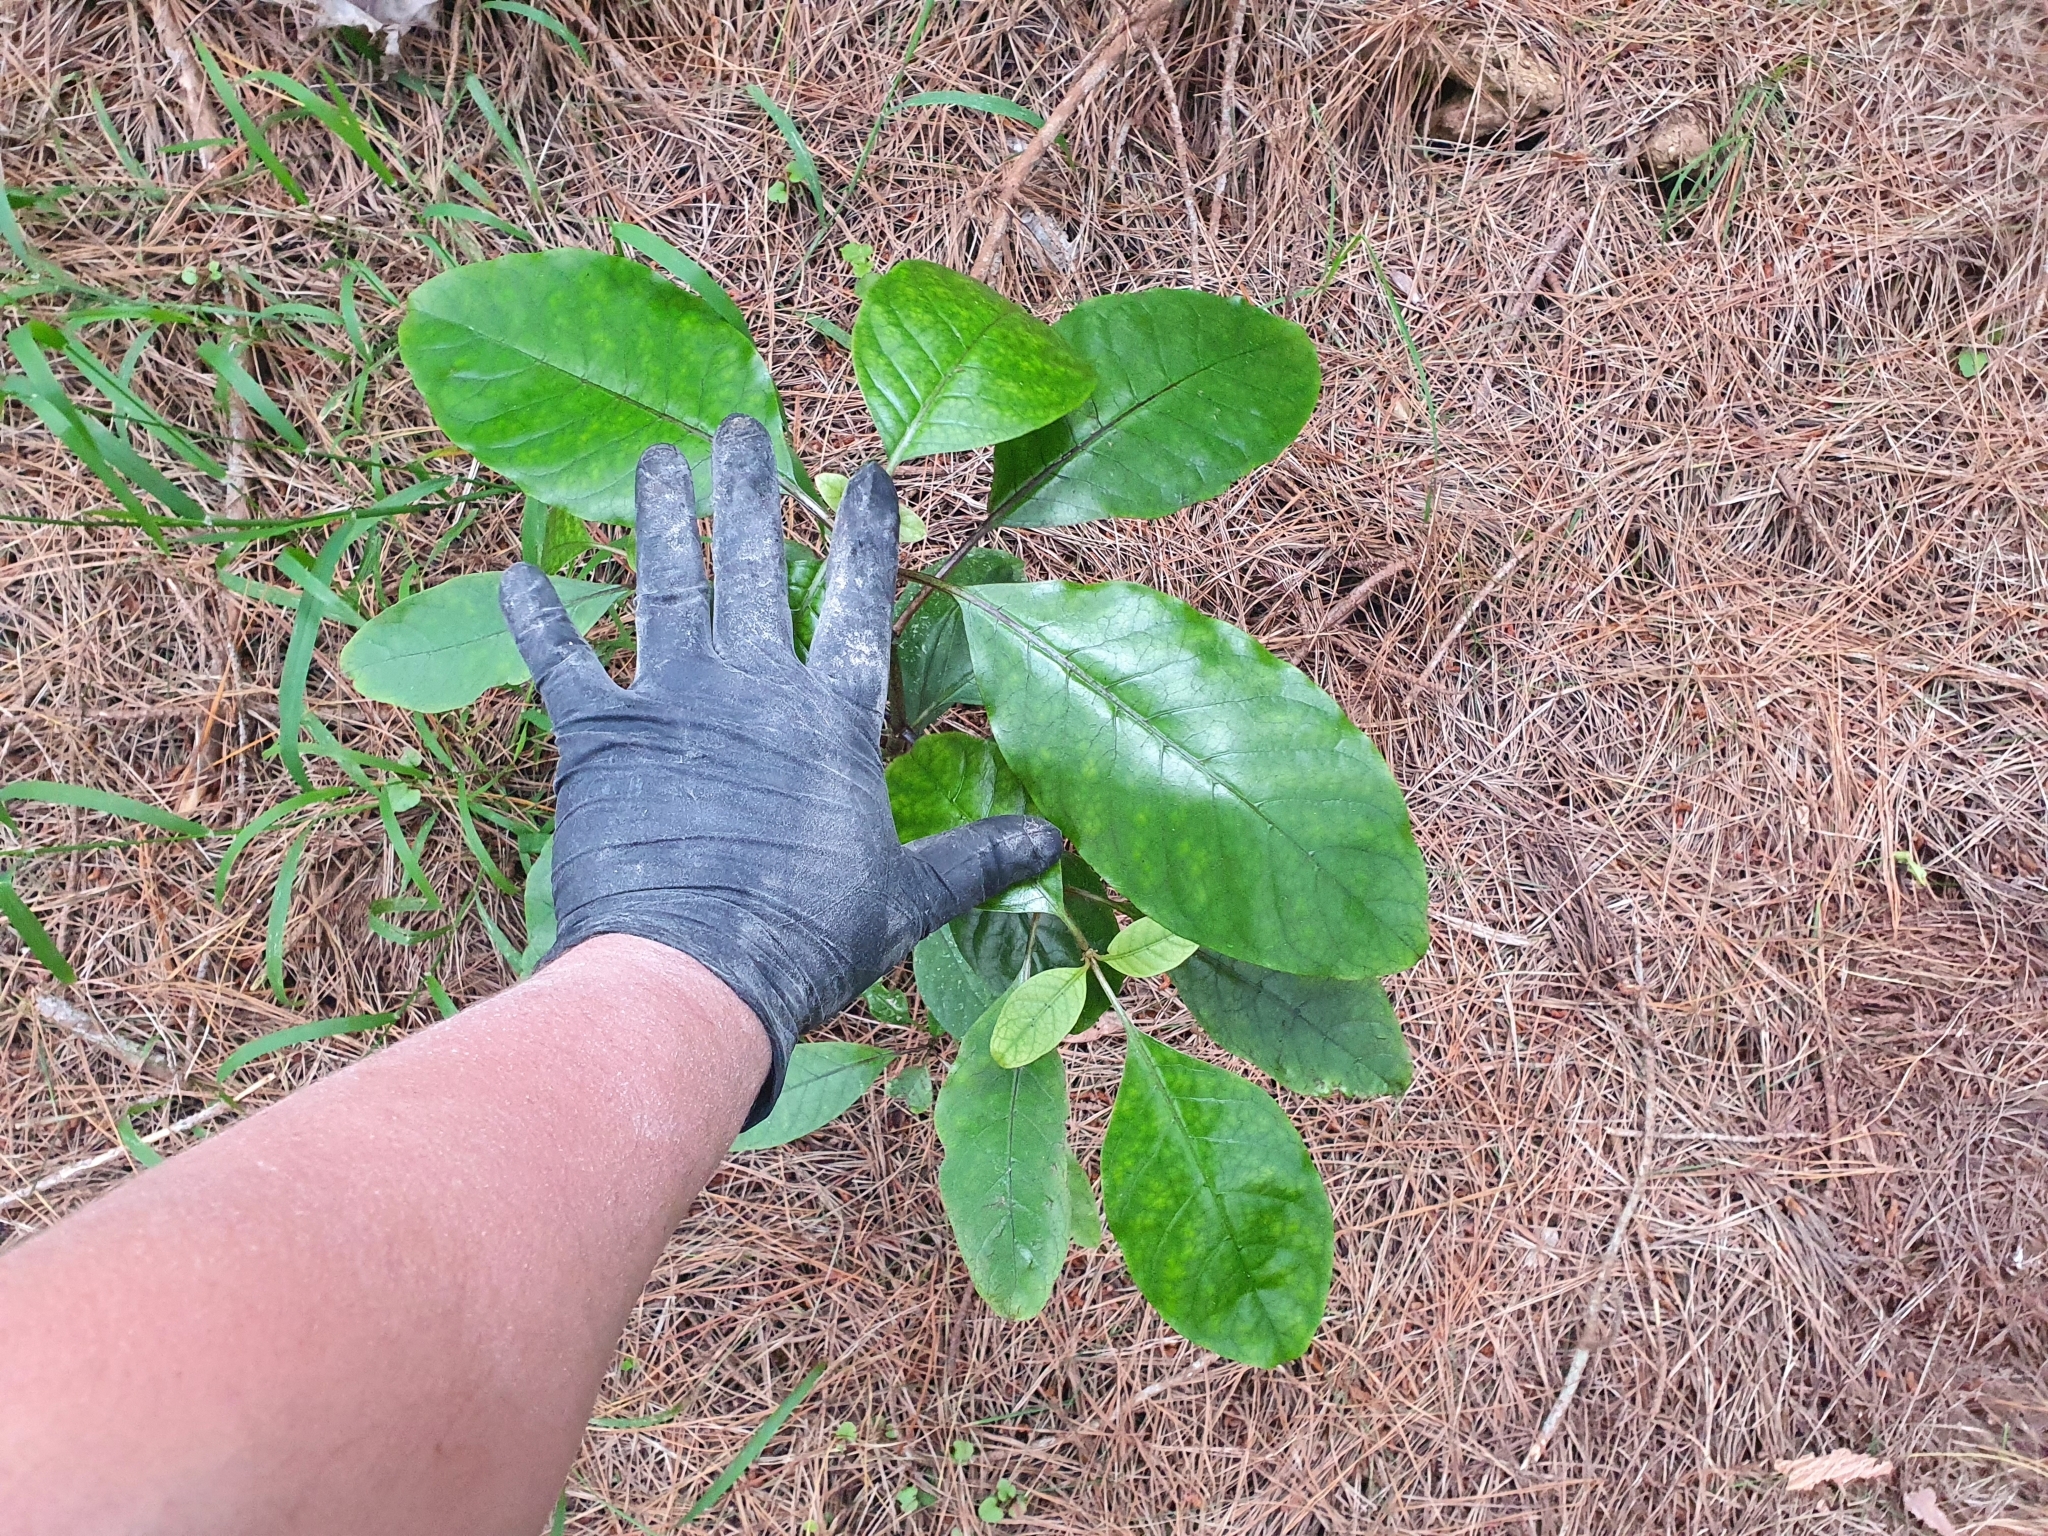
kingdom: Plantae
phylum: Tracheophyta
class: Magnoliopsida
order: Gentianales
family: Rubiaceae
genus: Coprosma
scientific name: Coprosma autumnalis
